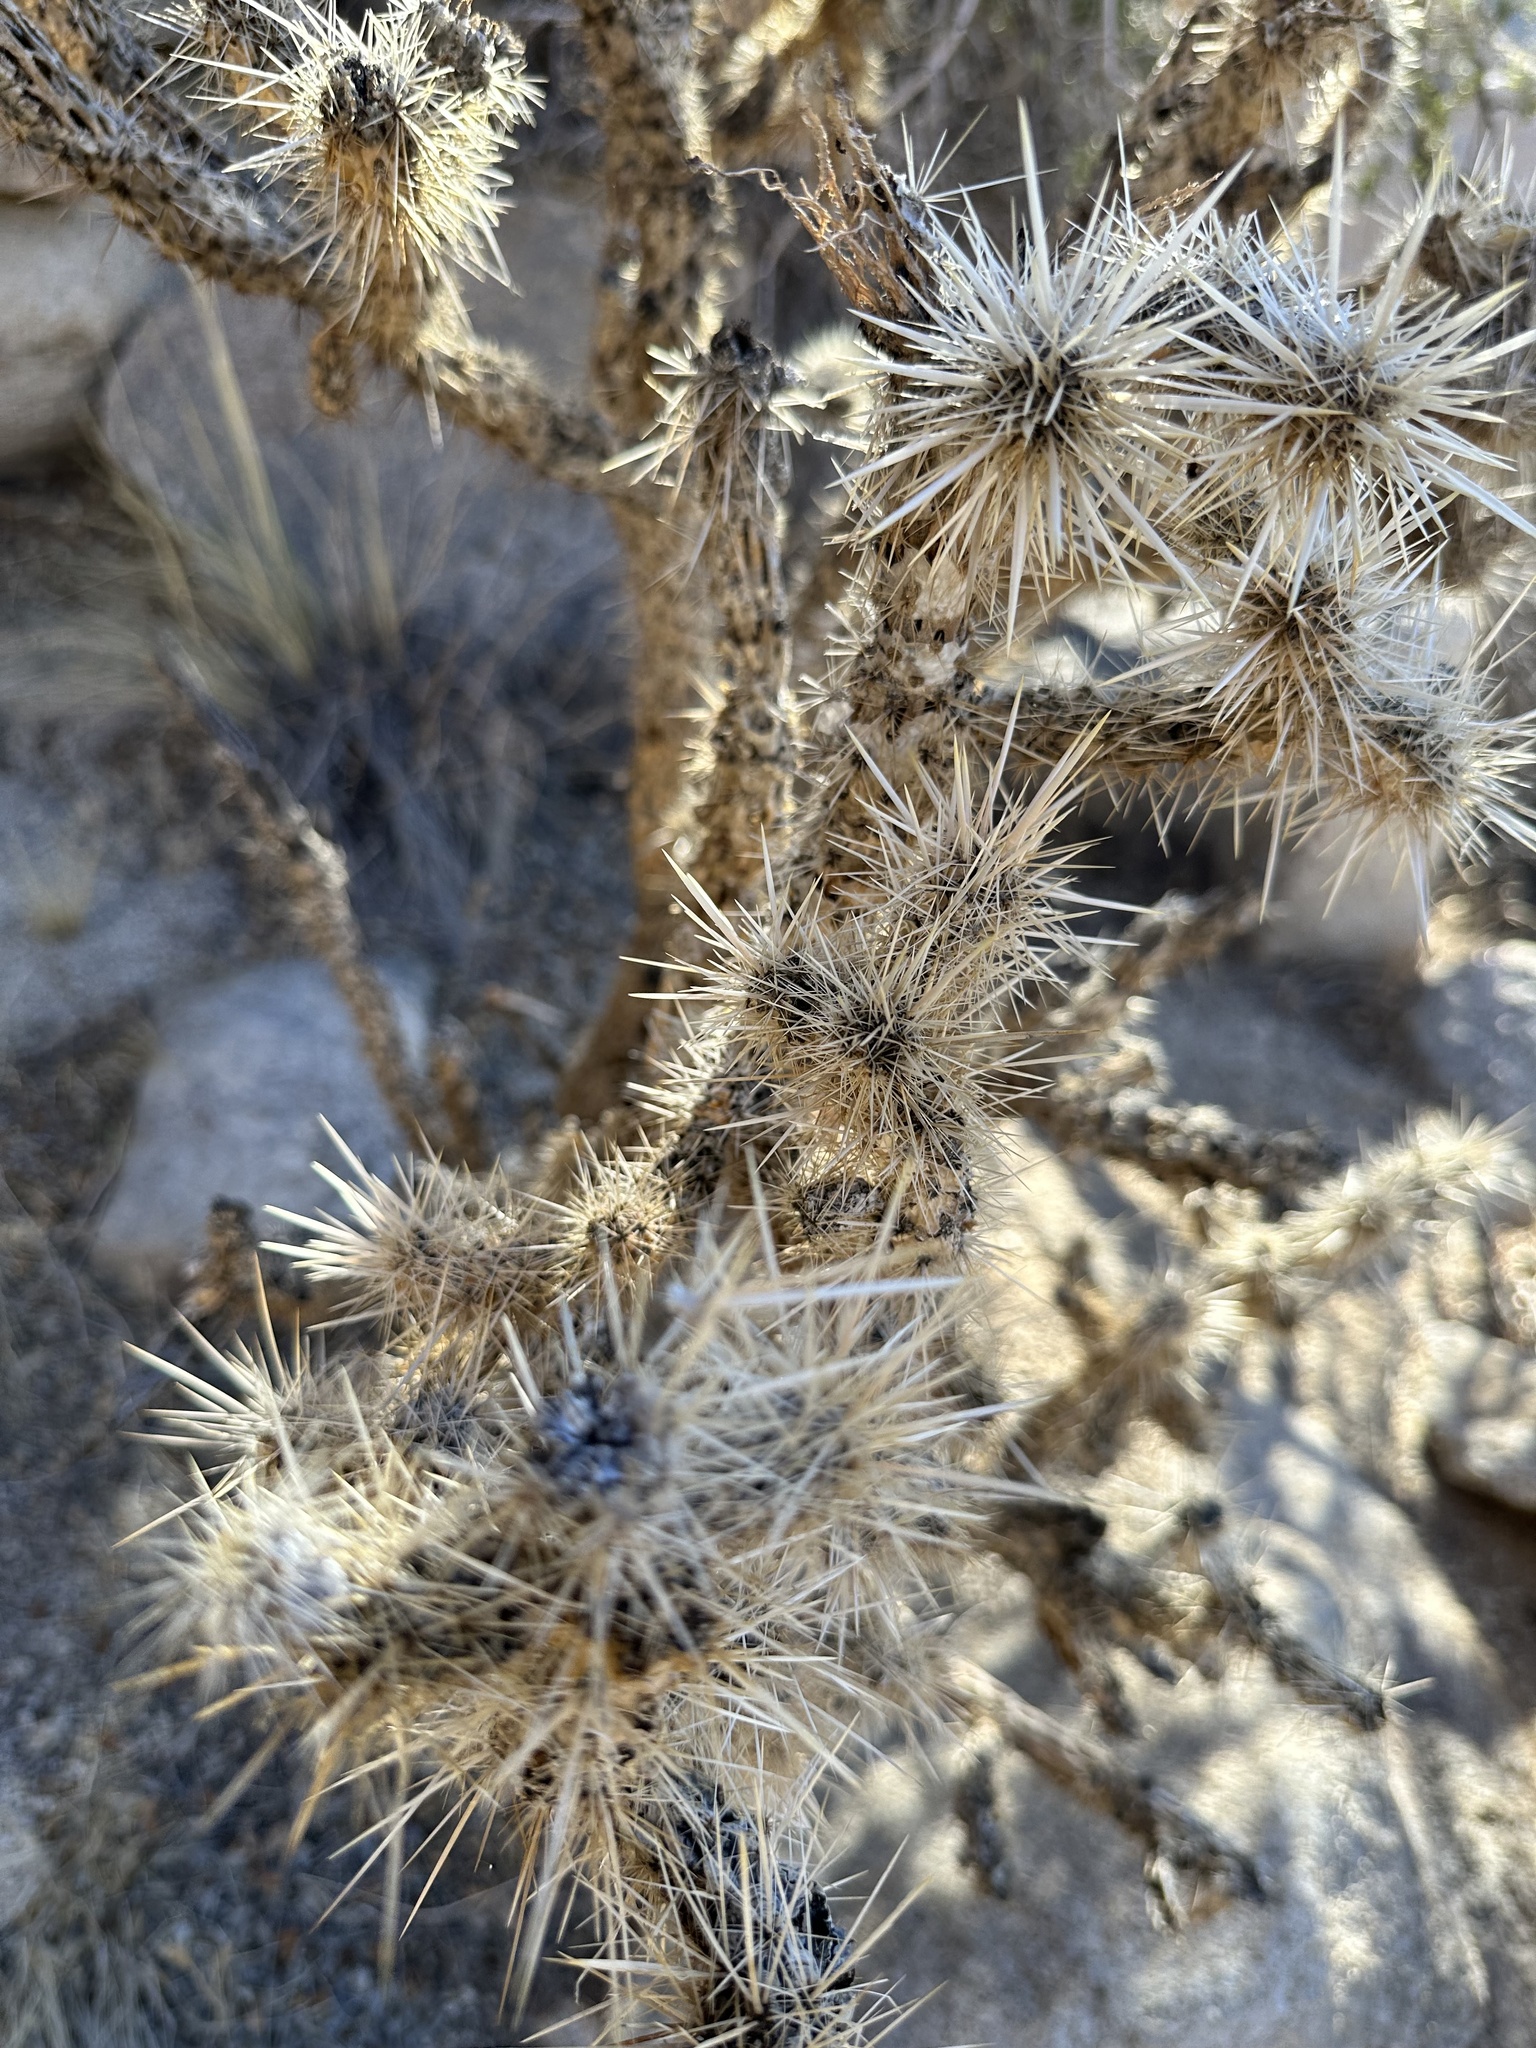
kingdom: Plantae
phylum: Tracheophyta
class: Magnoliopsida
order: Caryophyllales
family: Cactaceae
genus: Cylindropuntia
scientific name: Cylindropuntia echinocarpa
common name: Ground cholla
